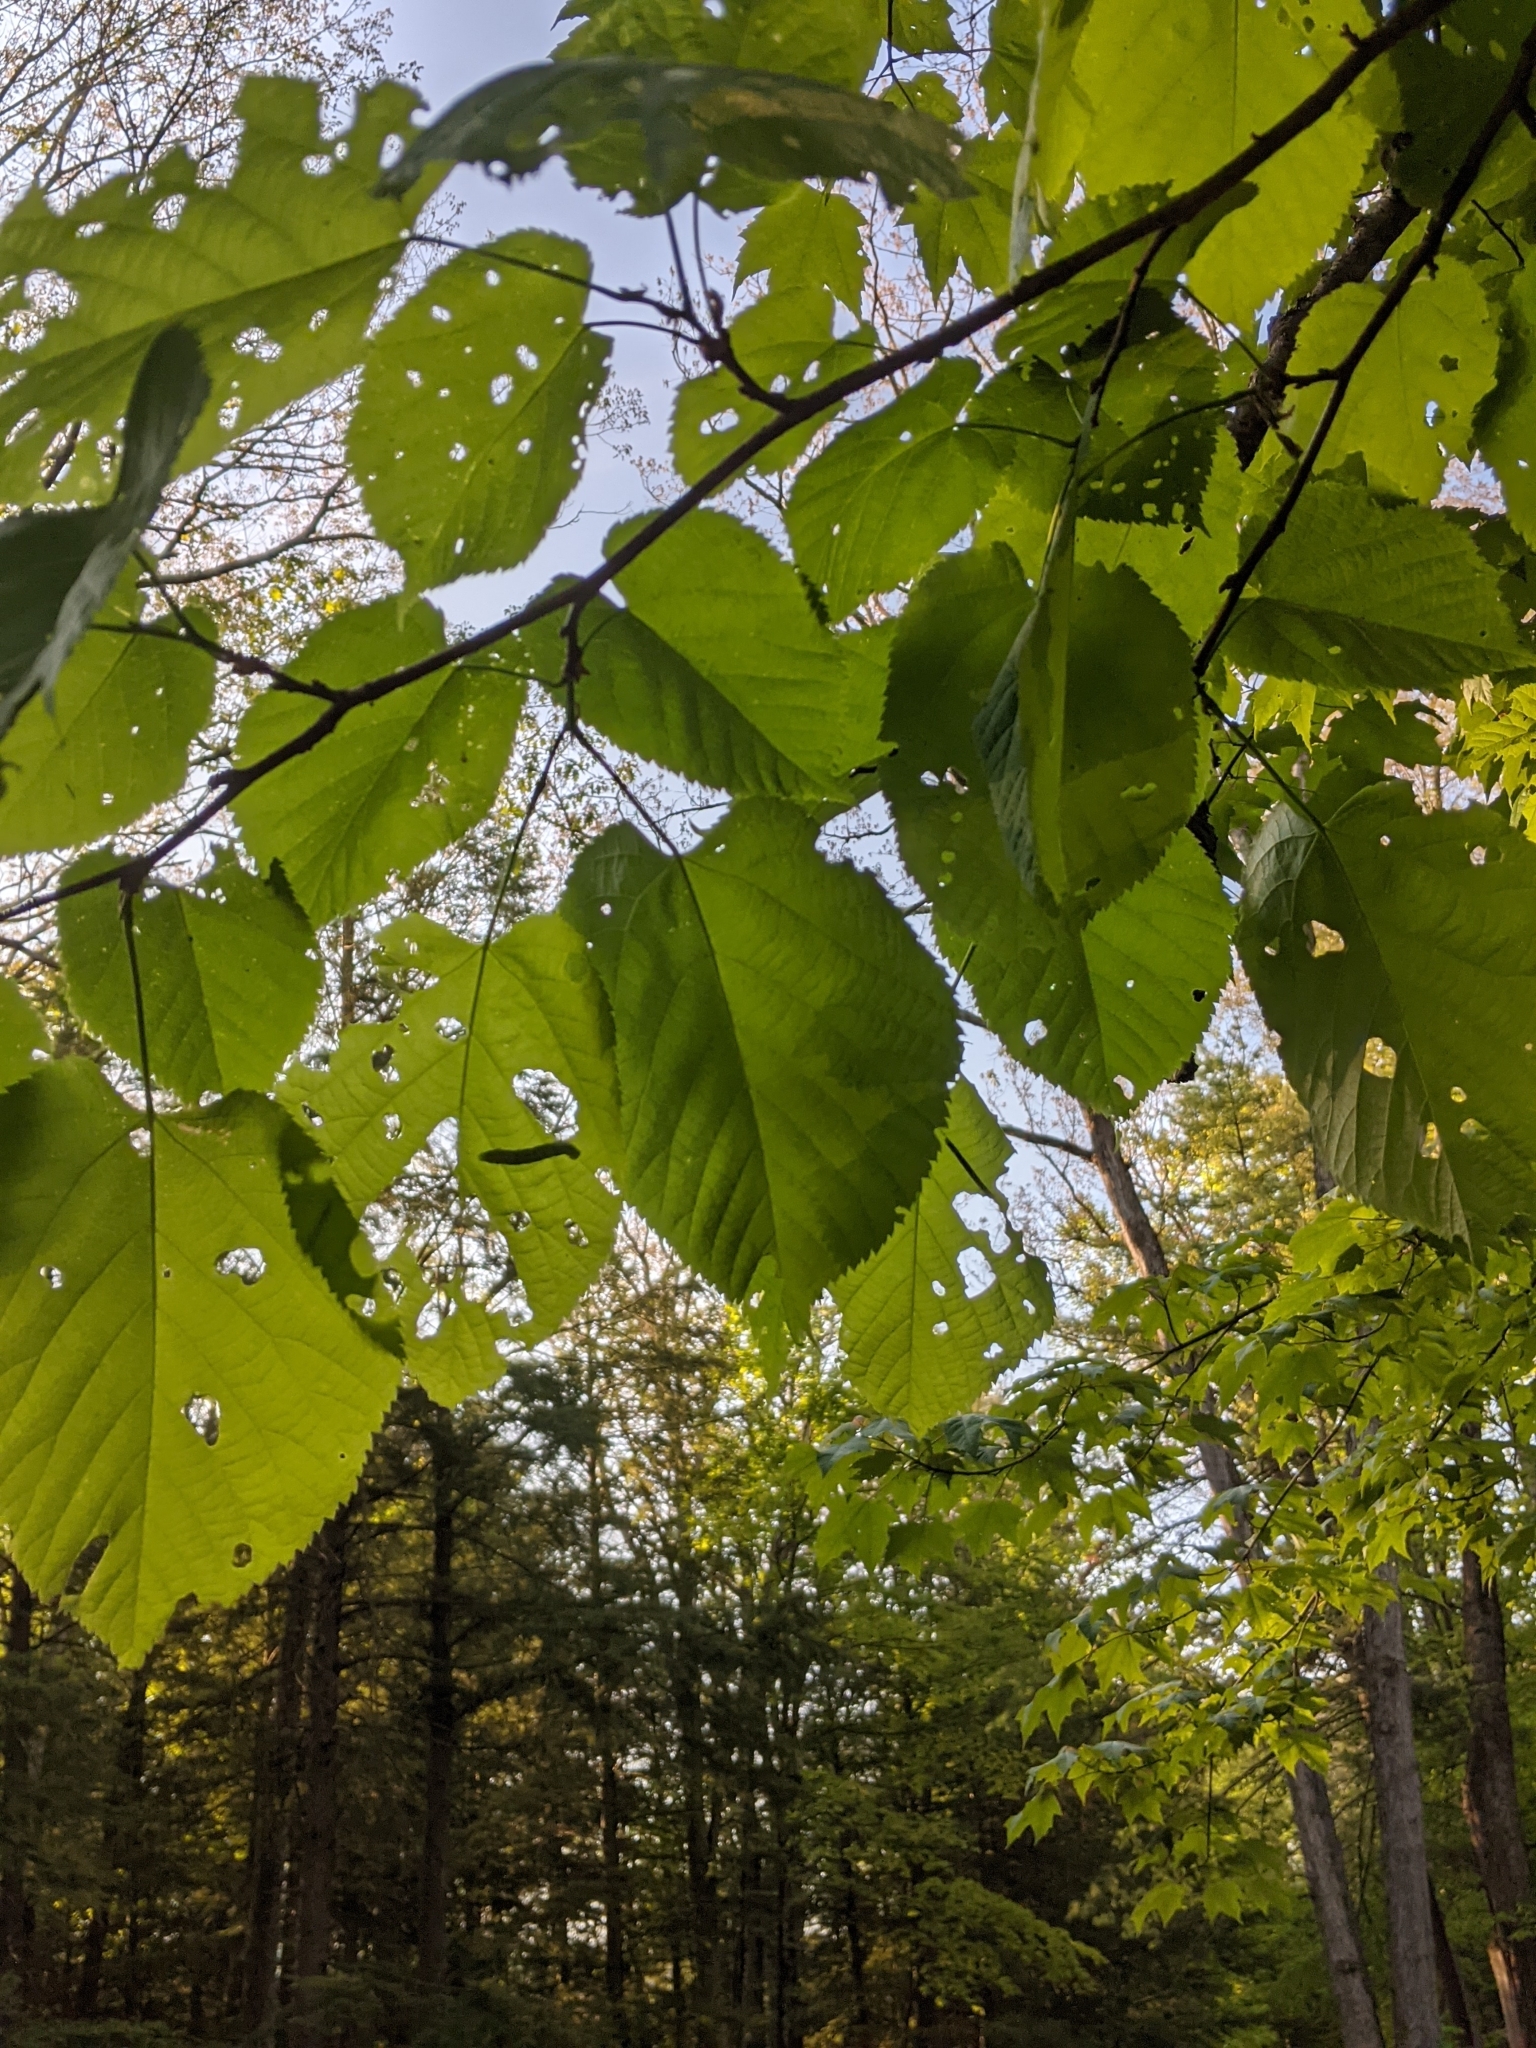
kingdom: Plantae
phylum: Tracheophyta
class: Magnoliopsida
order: Malvales
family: Malvaceae
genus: Tilia
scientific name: Tilia americana
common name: Basswood
